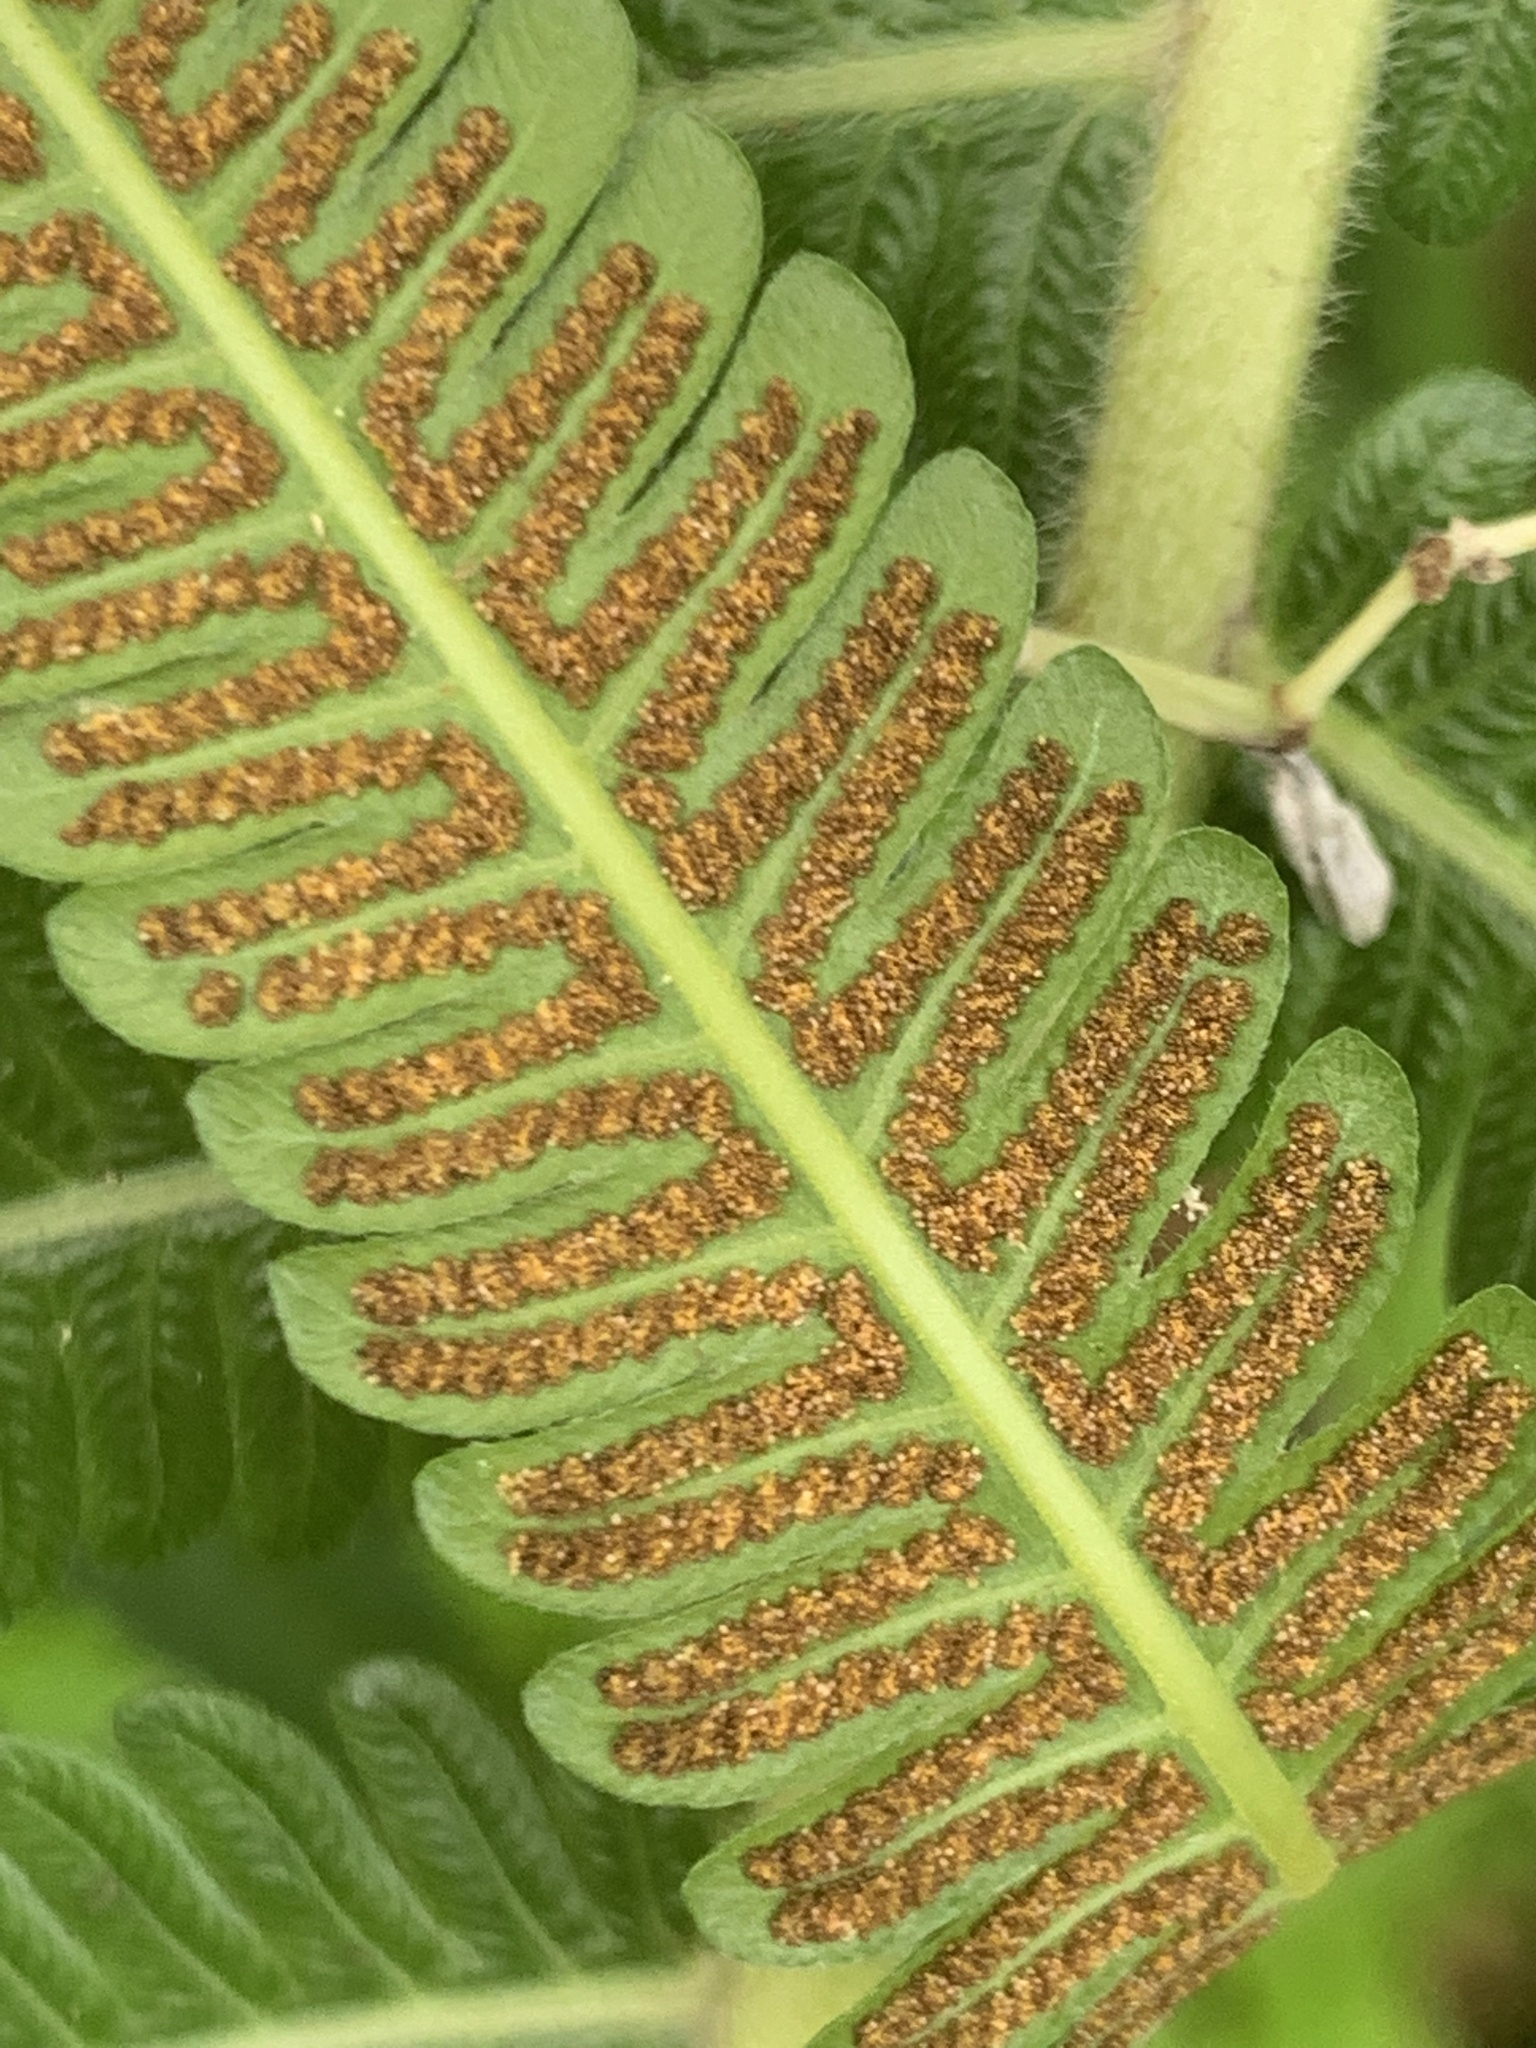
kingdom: Plantae
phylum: Tracheophyta
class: Polypodiopsida
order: Polypodiales
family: Thelypteridaceae
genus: Sphaerostephanos
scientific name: Sphaerostephanos polycarpos
